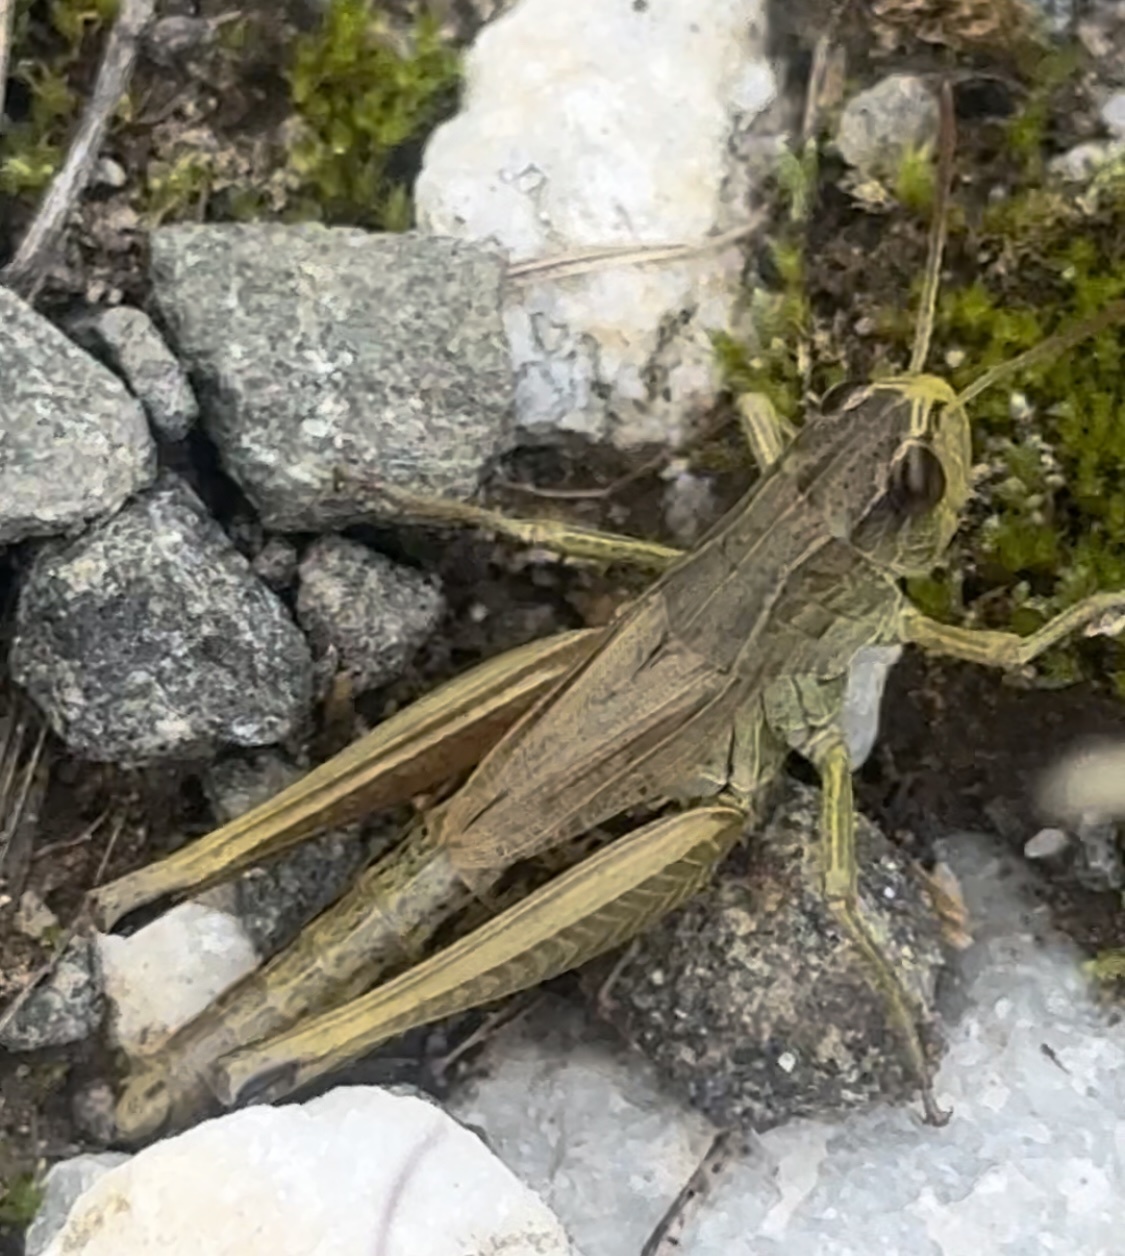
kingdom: Animalia
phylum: Arthropoda
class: Insecta
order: Orthoptera
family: Acrididae
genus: Pseudochorthippus
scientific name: Pseudochorthippus parallelus
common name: Meadow grasshopper
